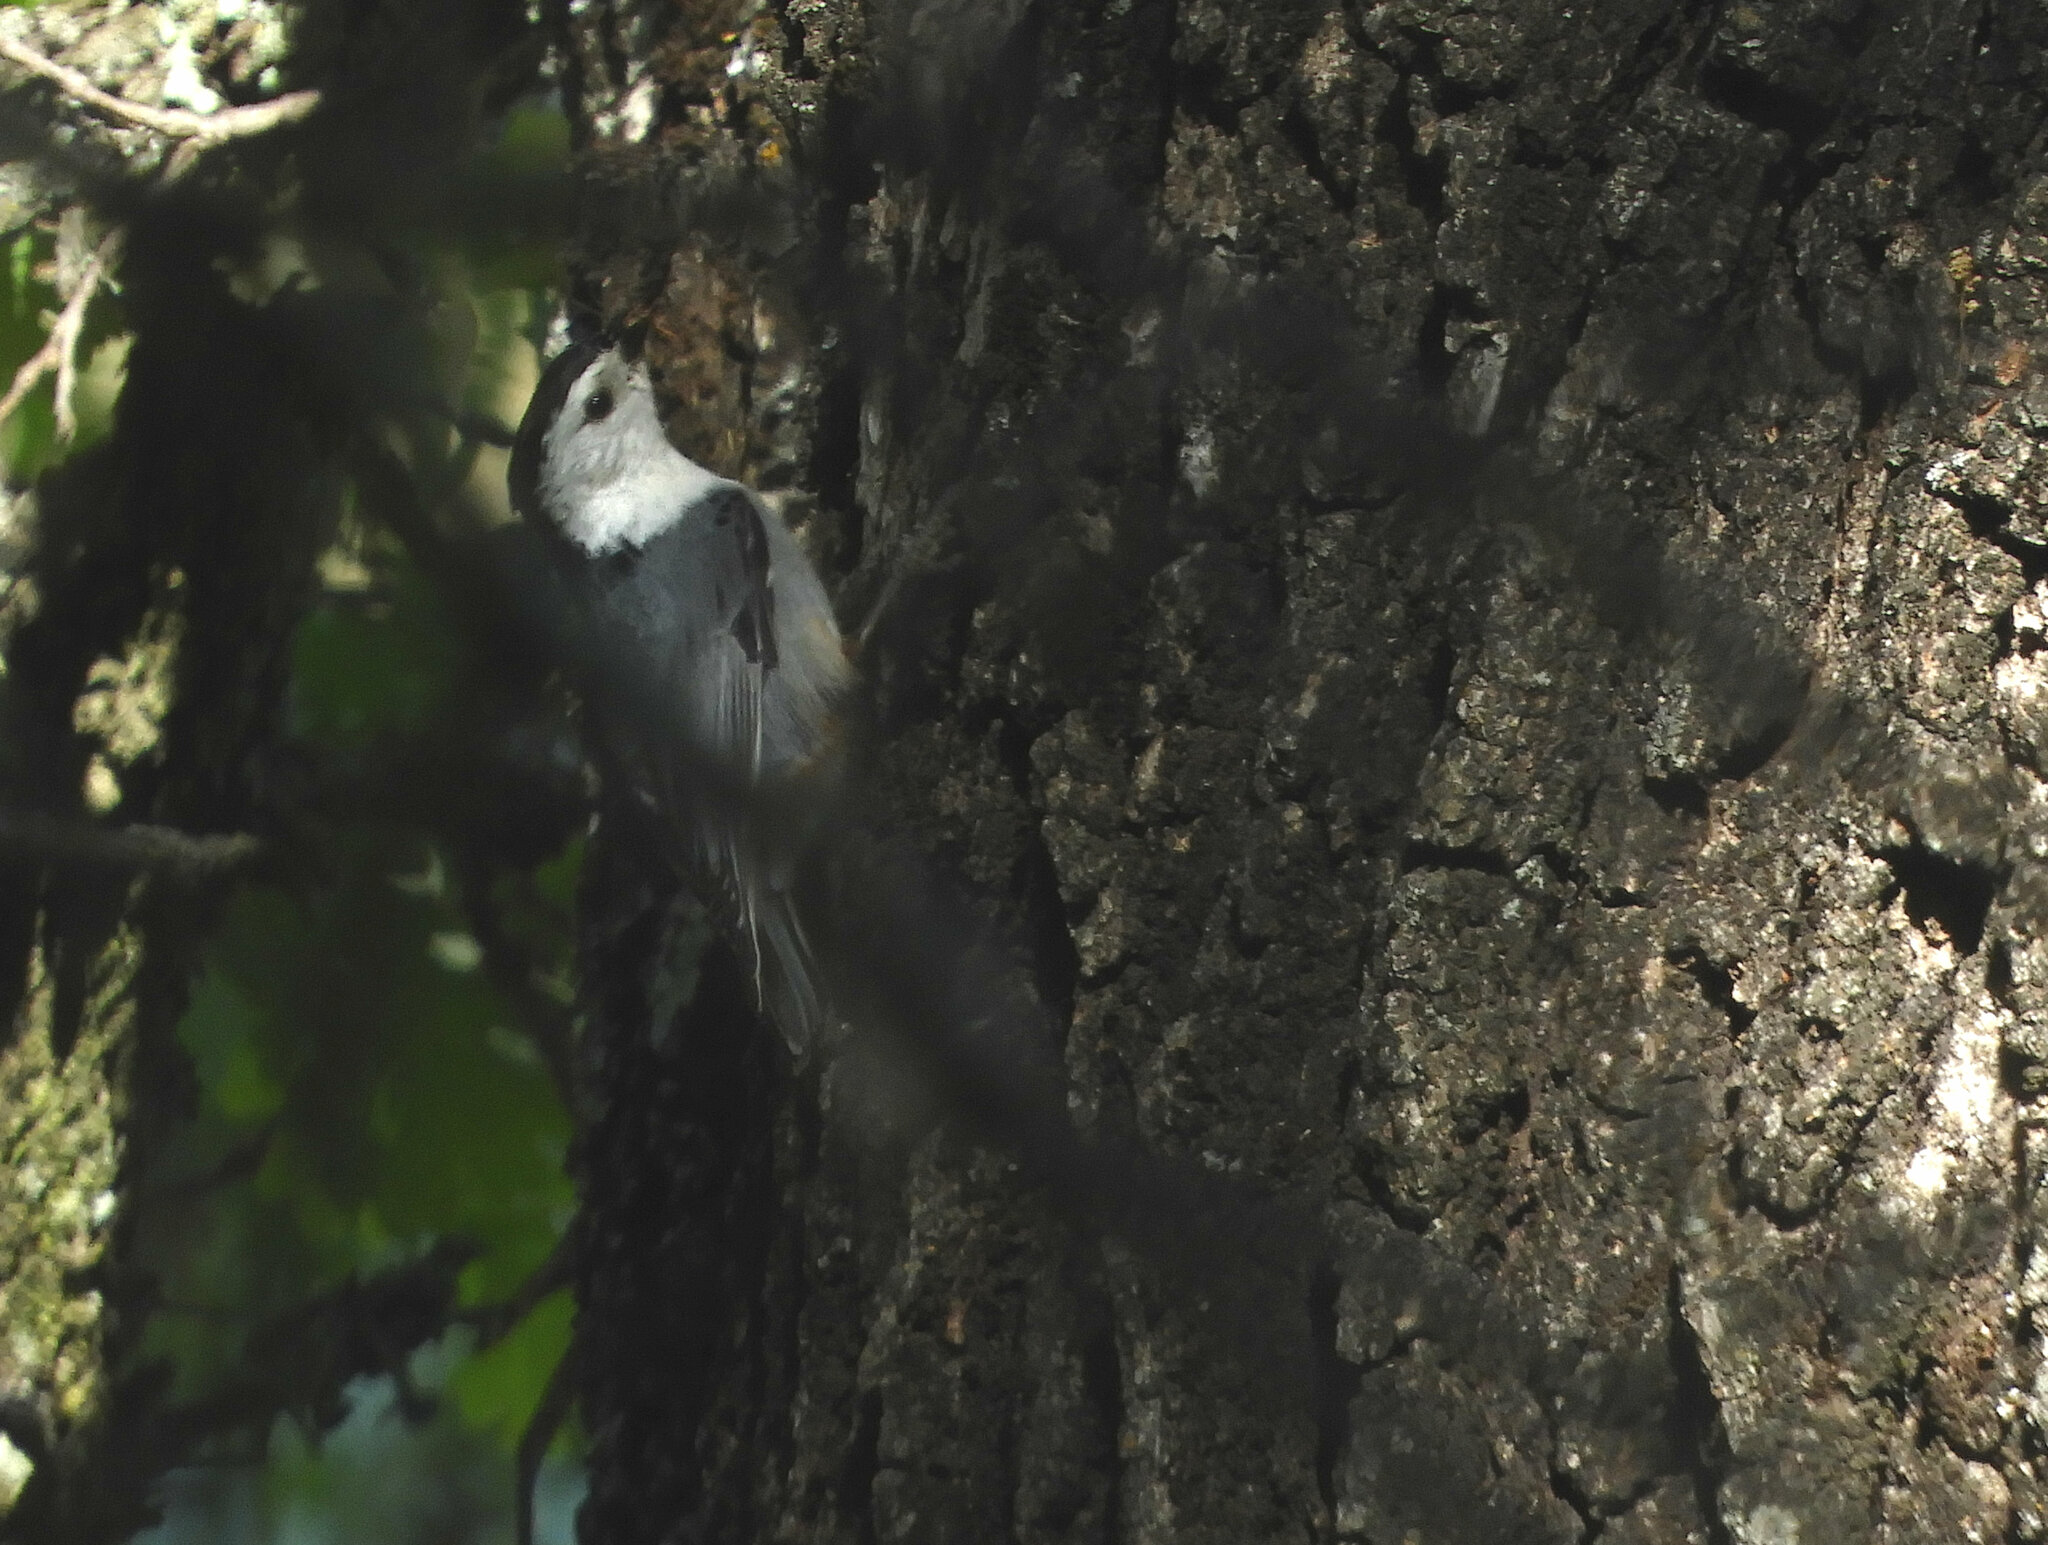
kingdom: Animalia
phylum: Chordata
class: Aves
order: Passeriformes
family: Sittidae
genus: Sitta
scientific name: Sitta carolinensis
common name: White-breasted nuthatch
